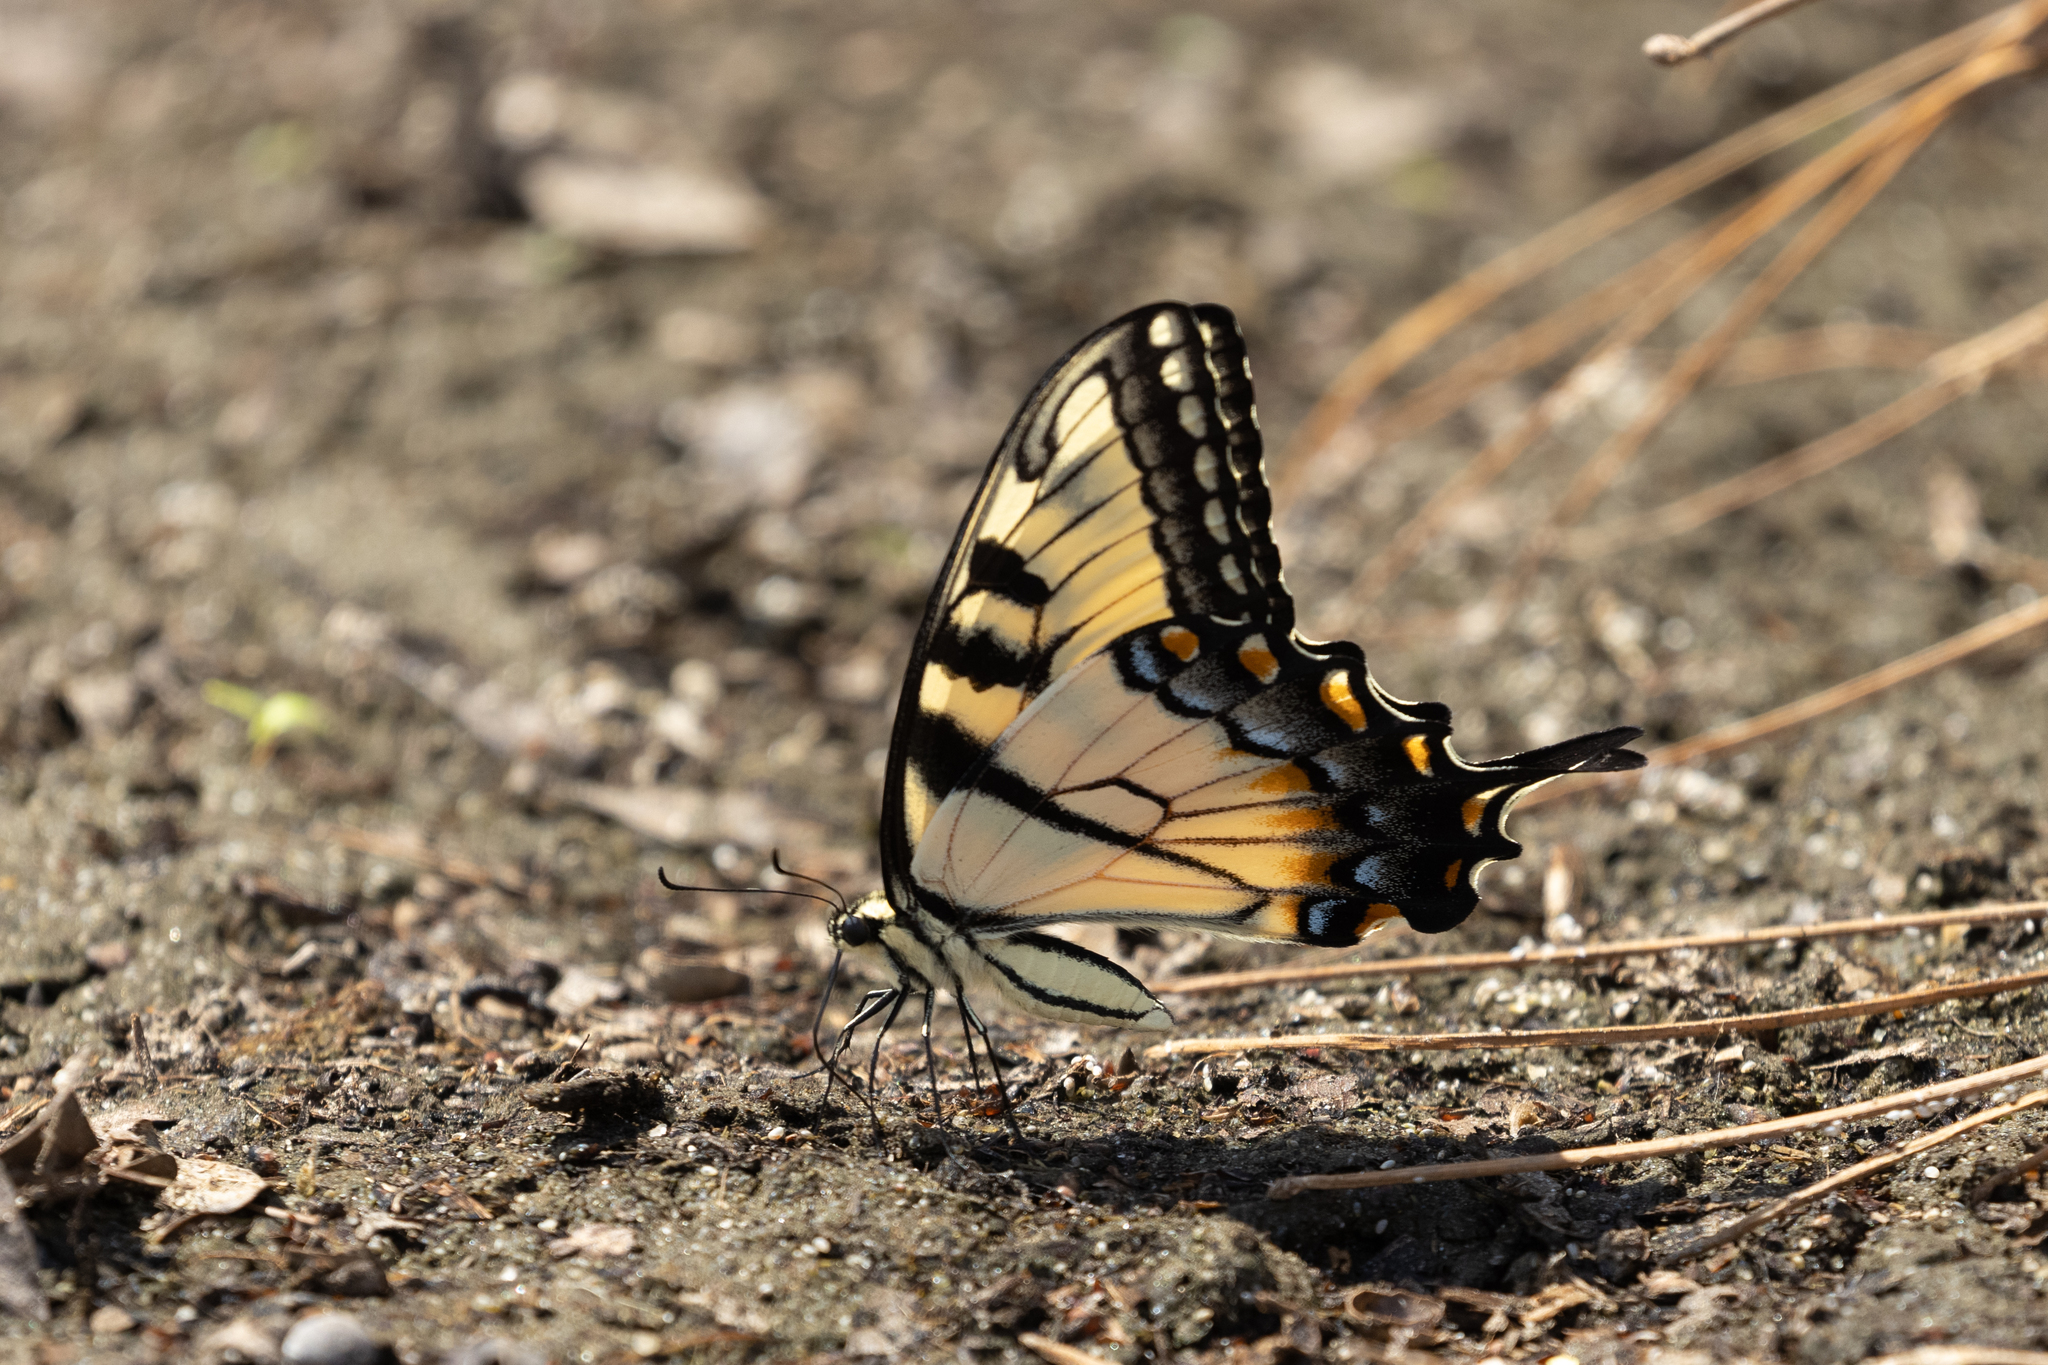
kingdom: Animalia
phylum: Arthropoda
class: Insecta
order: Lepidoptera
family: Papilionidae
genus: Papilio
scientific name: Papilio glaucus
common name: Tiger swallowtail
